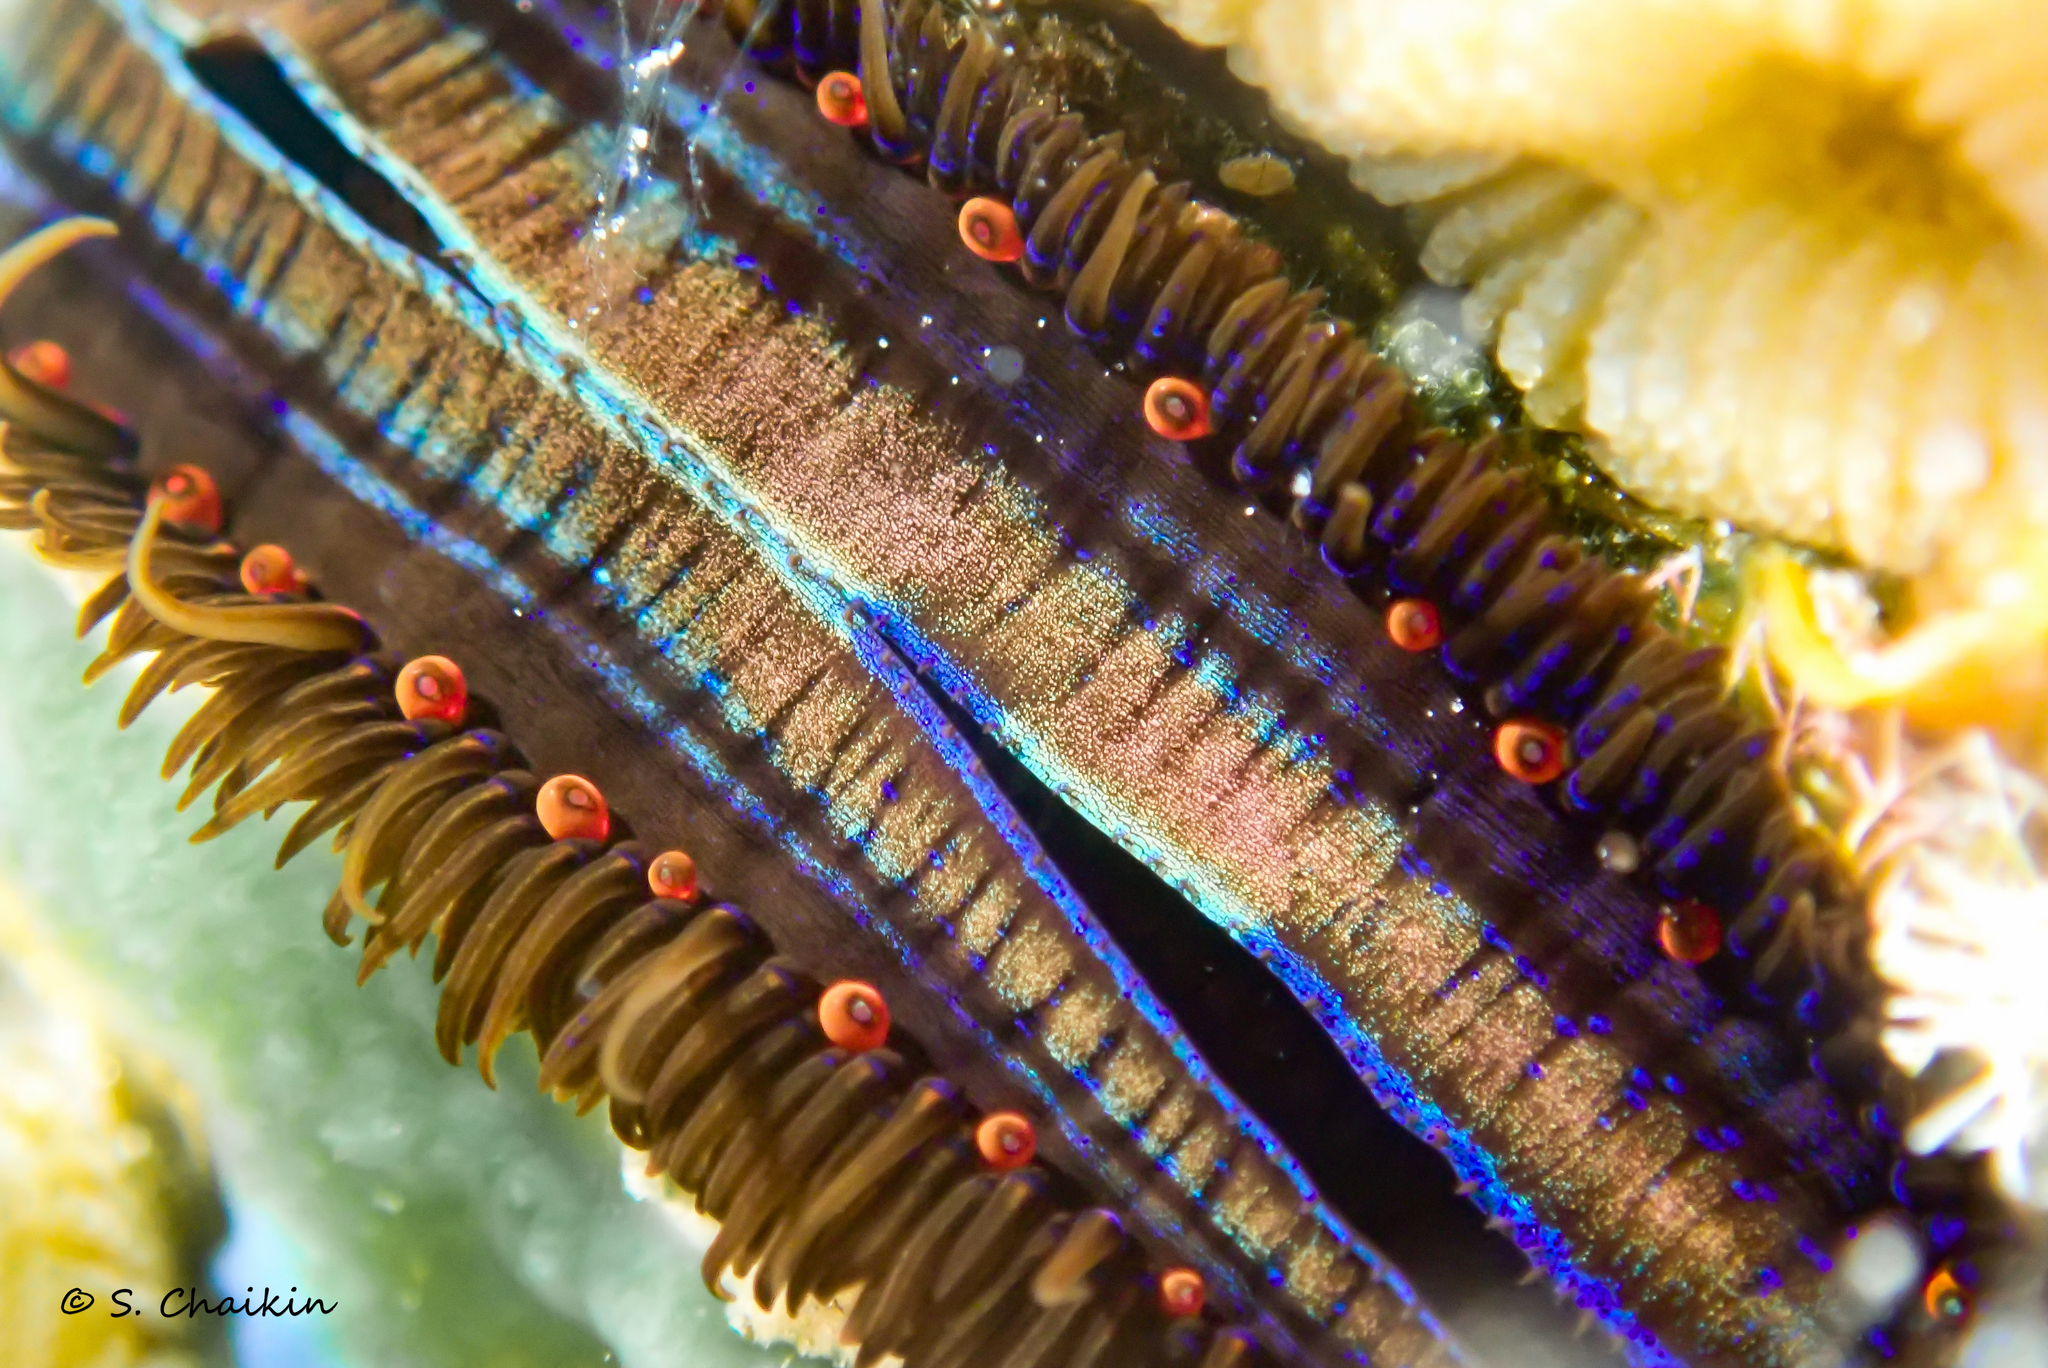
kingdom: Animalia
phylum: Mollusca
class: Bivalvia
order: Pectinida
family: Pectinidae
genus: Pedum
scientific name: Pedum spondyloideum
